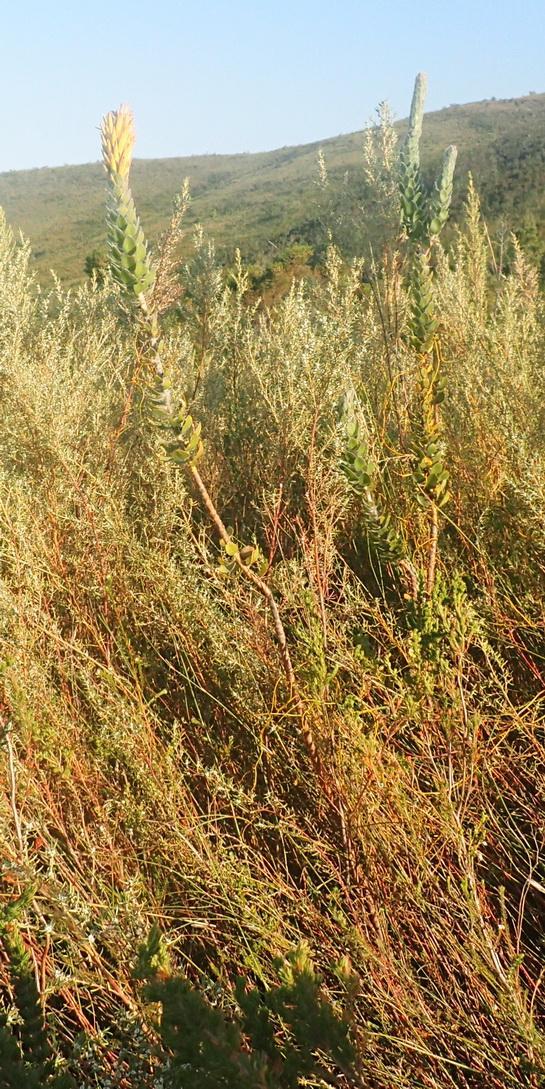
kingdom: Plantae
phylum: Tracheophyta
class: Magnoliopsida
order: Proteales
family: Proteaceae
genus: Mimetes
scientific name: Mimetes pauciflora
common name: Three-flowered pagoda
